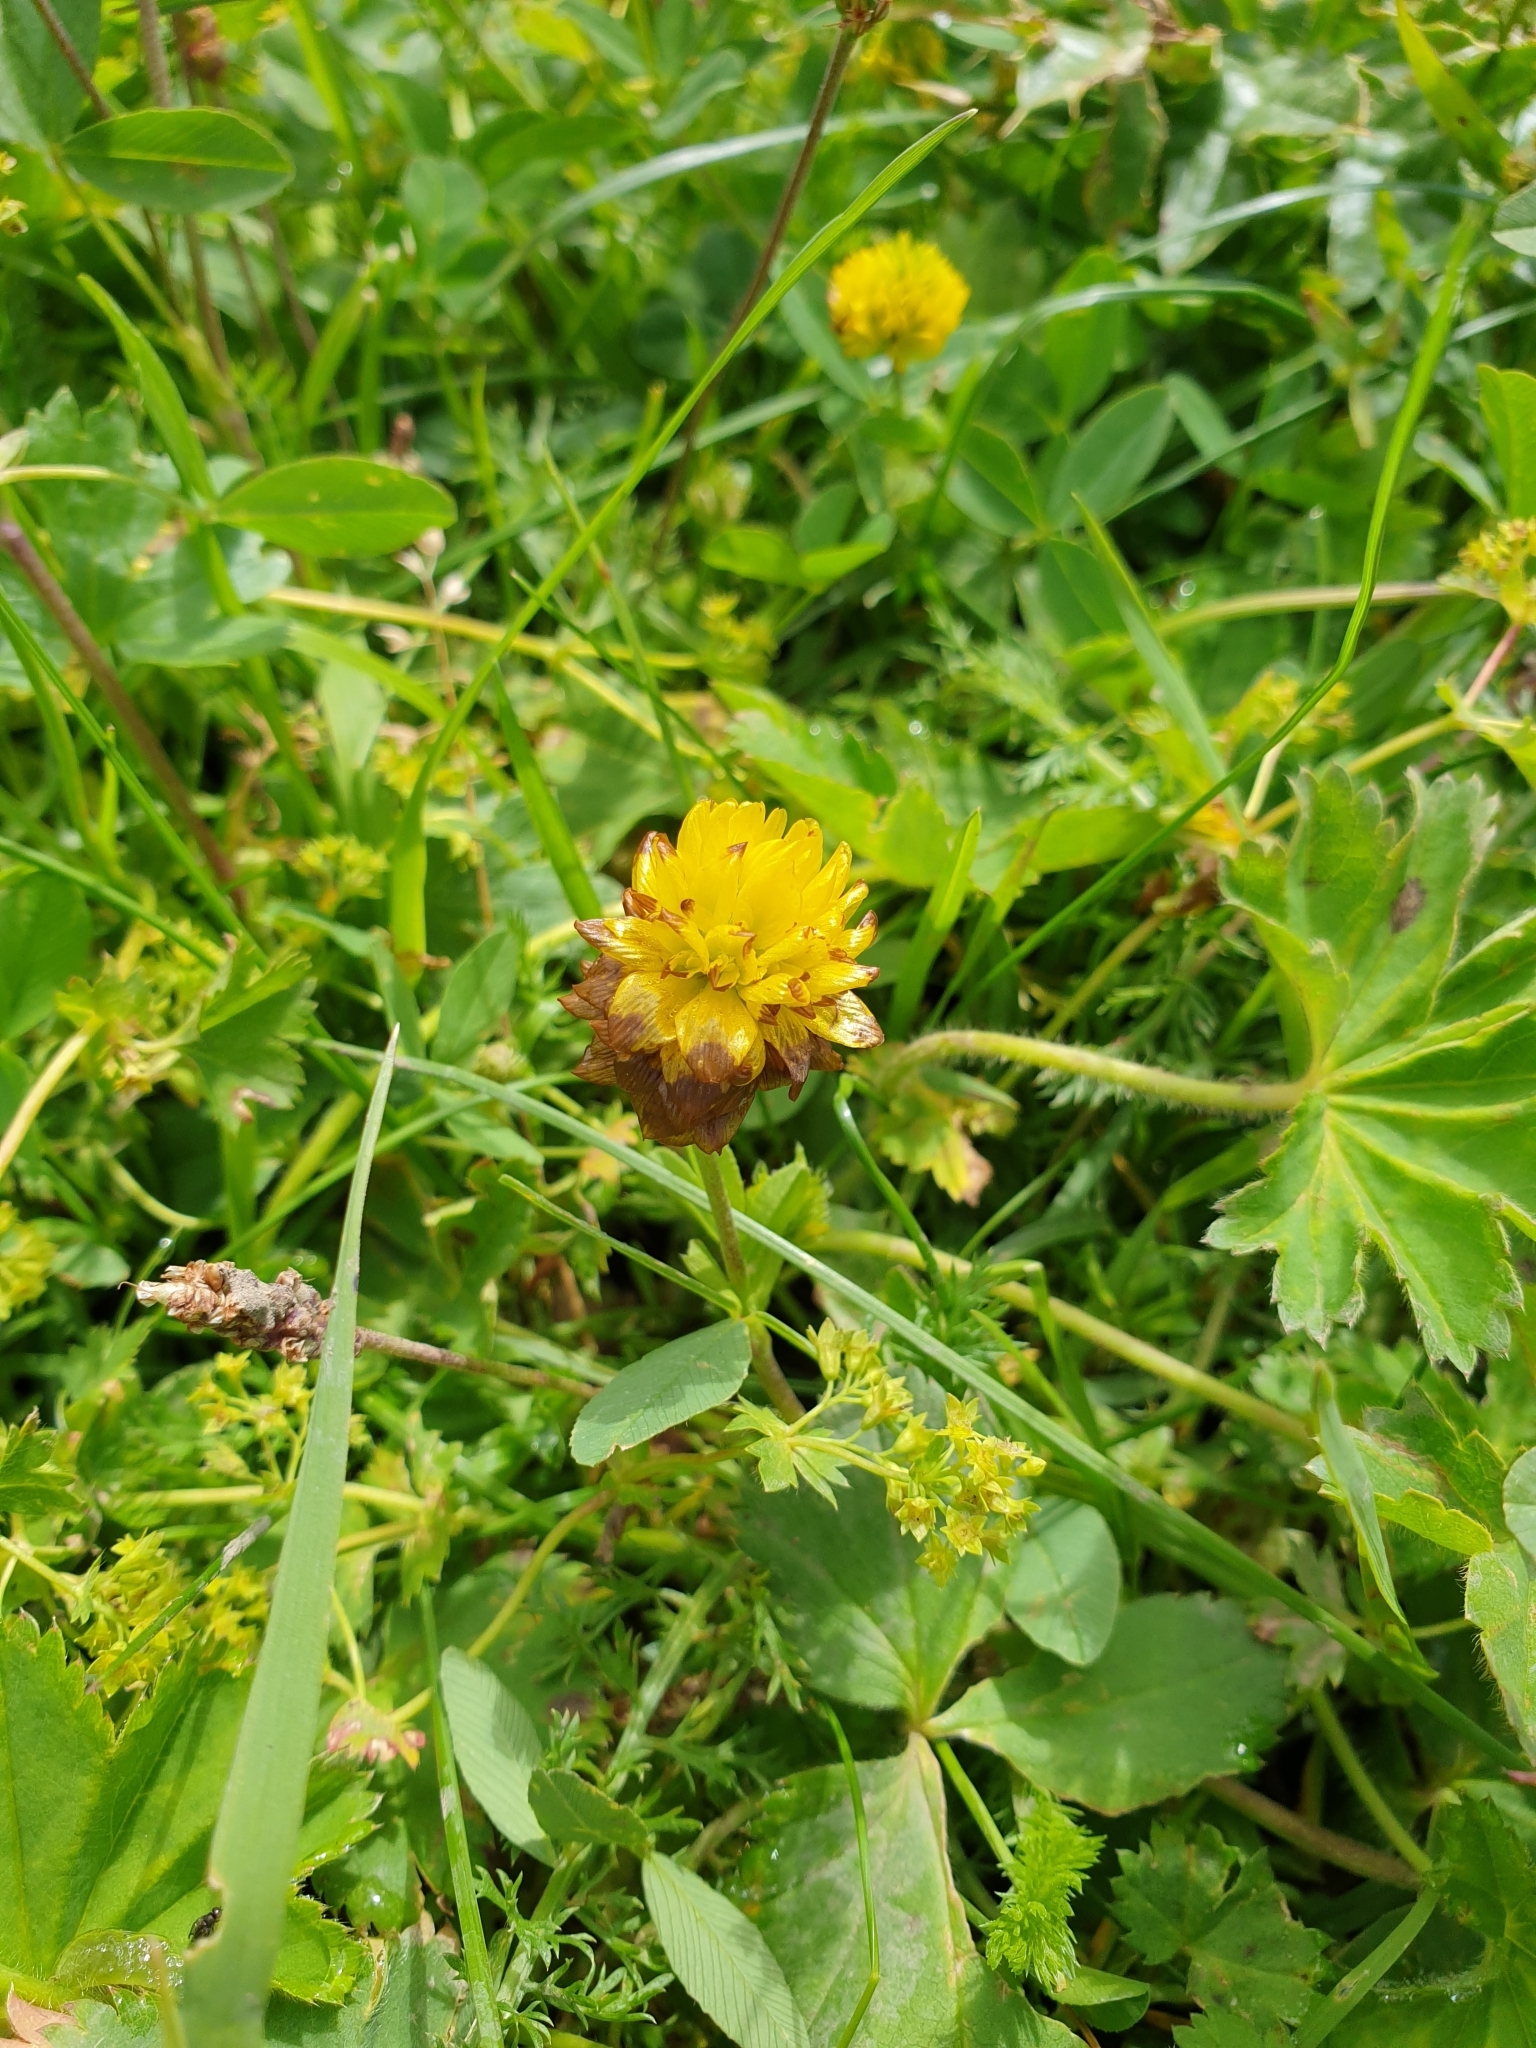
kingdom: Plantae
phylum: Tracheophyta
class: Magnoliopsida
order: Fabales
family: Fabaceae
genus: Trifolium
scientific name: Trifolium badium
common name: Brown clover
